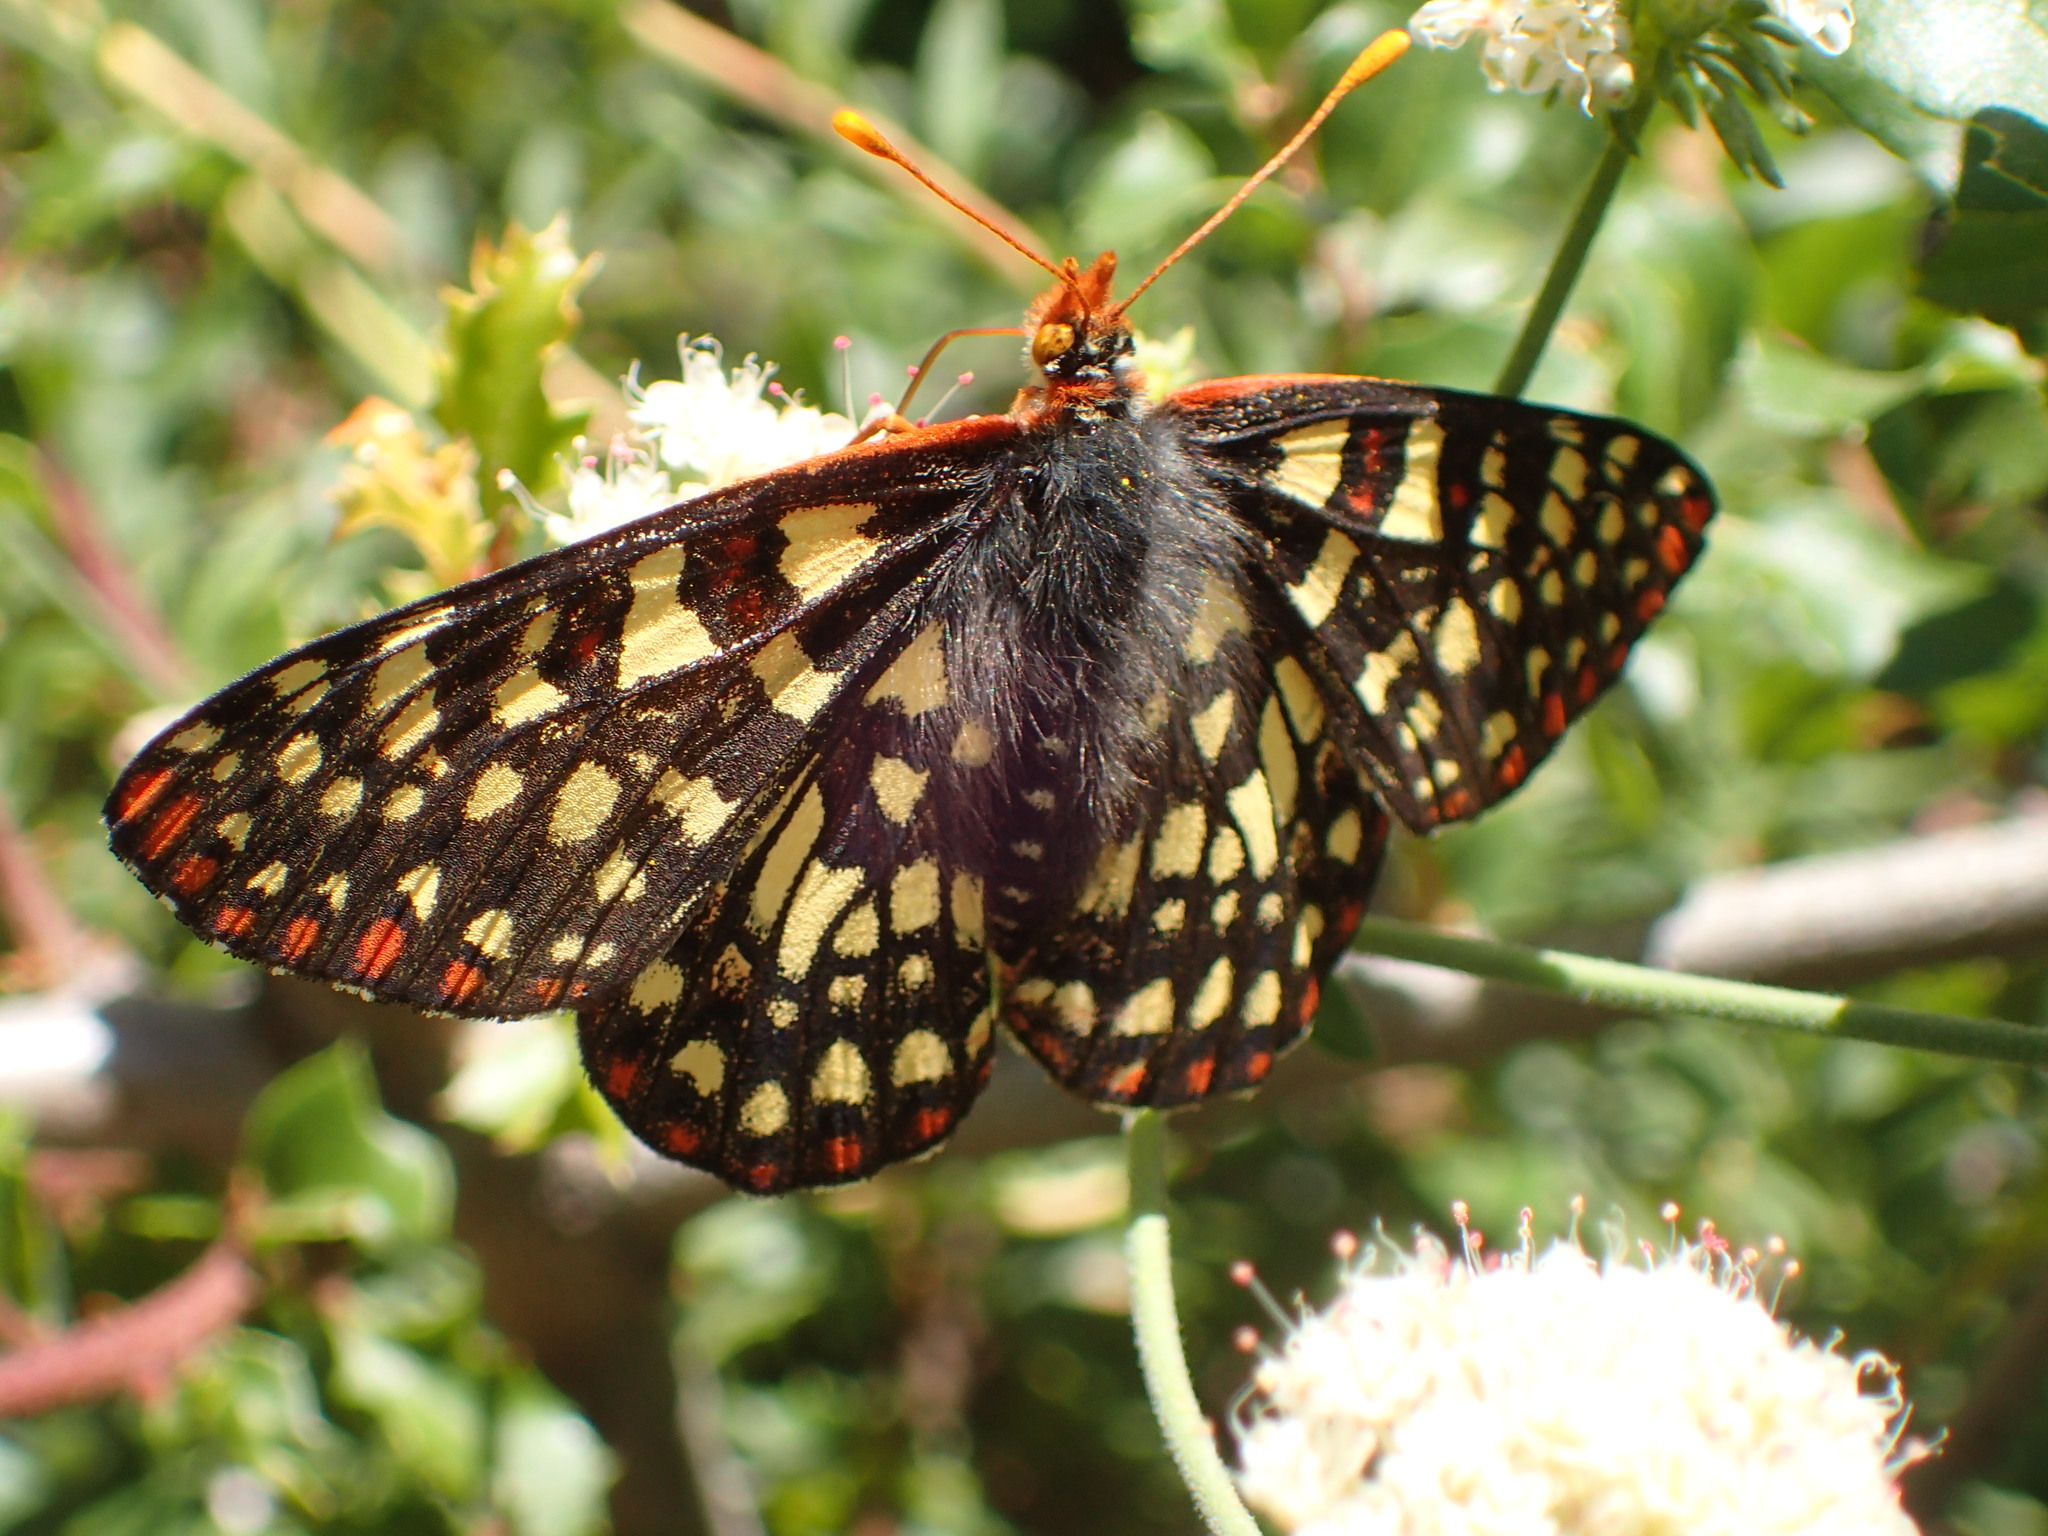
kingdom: Animalia
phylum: Arthropoda
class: Insecta
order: Lepidoptera
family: Nymphalidae
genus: Occidryas
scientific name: Occidryas chalcedona
